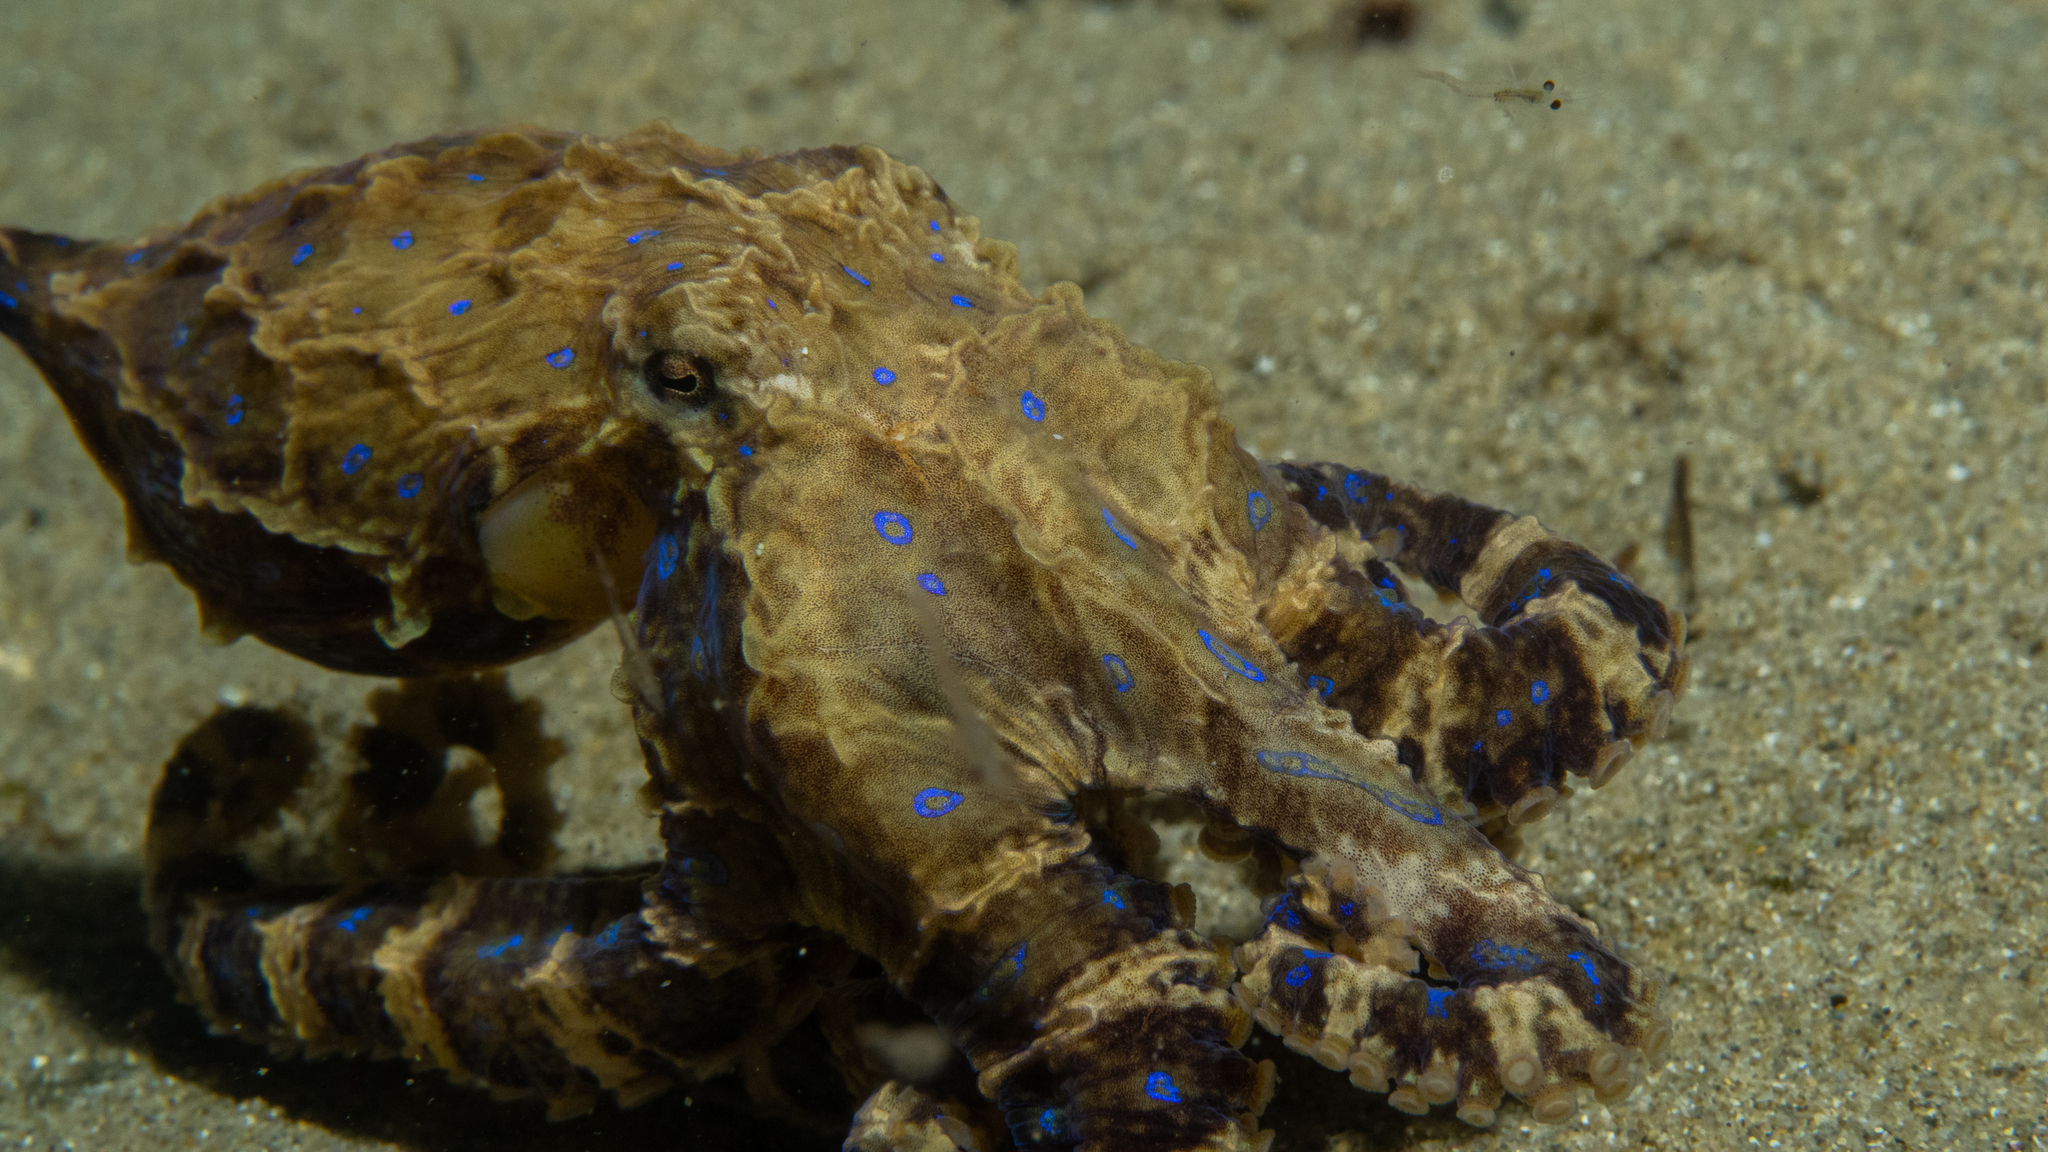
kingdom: Animalia
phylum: Mollusca
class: Cephalopoda
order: Octopoda
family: Octopodidae
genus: Hapalochlaena
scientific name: Hapalochlaena maculosa
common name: Blue-ringed octopus
